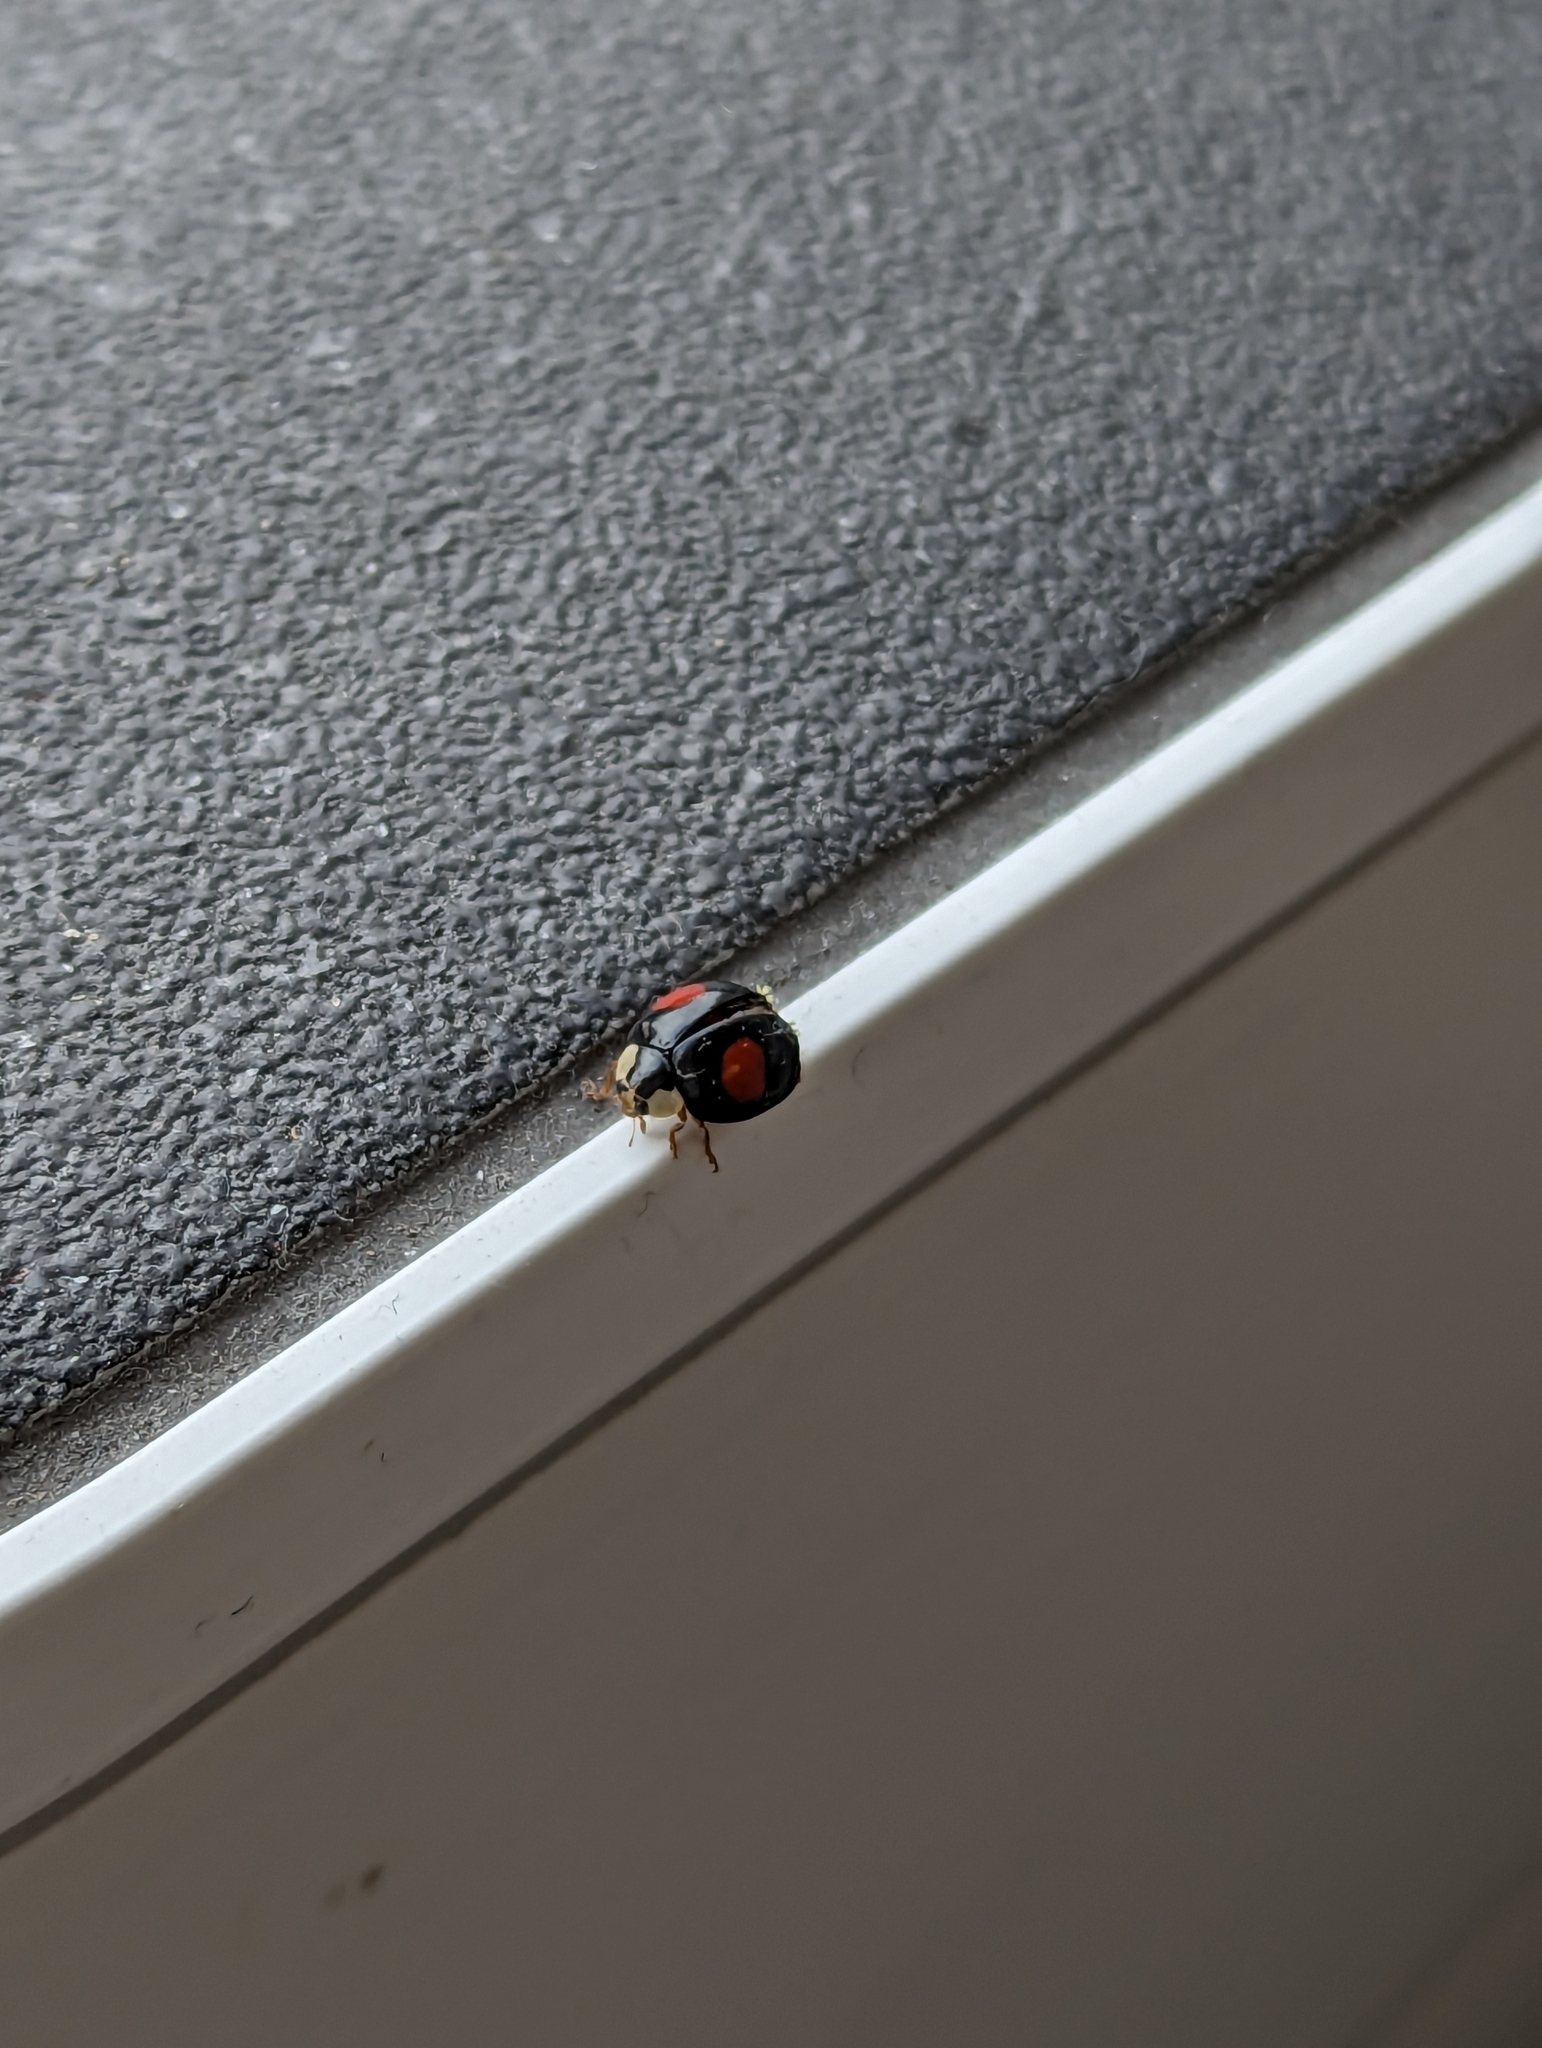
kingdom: Animalia
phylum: Arthropoda
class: Insecta
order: Coleoptera
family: Coccinellidae
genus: Harmonia
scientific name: Harmonia axyridis
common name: Harlequin ladybird
